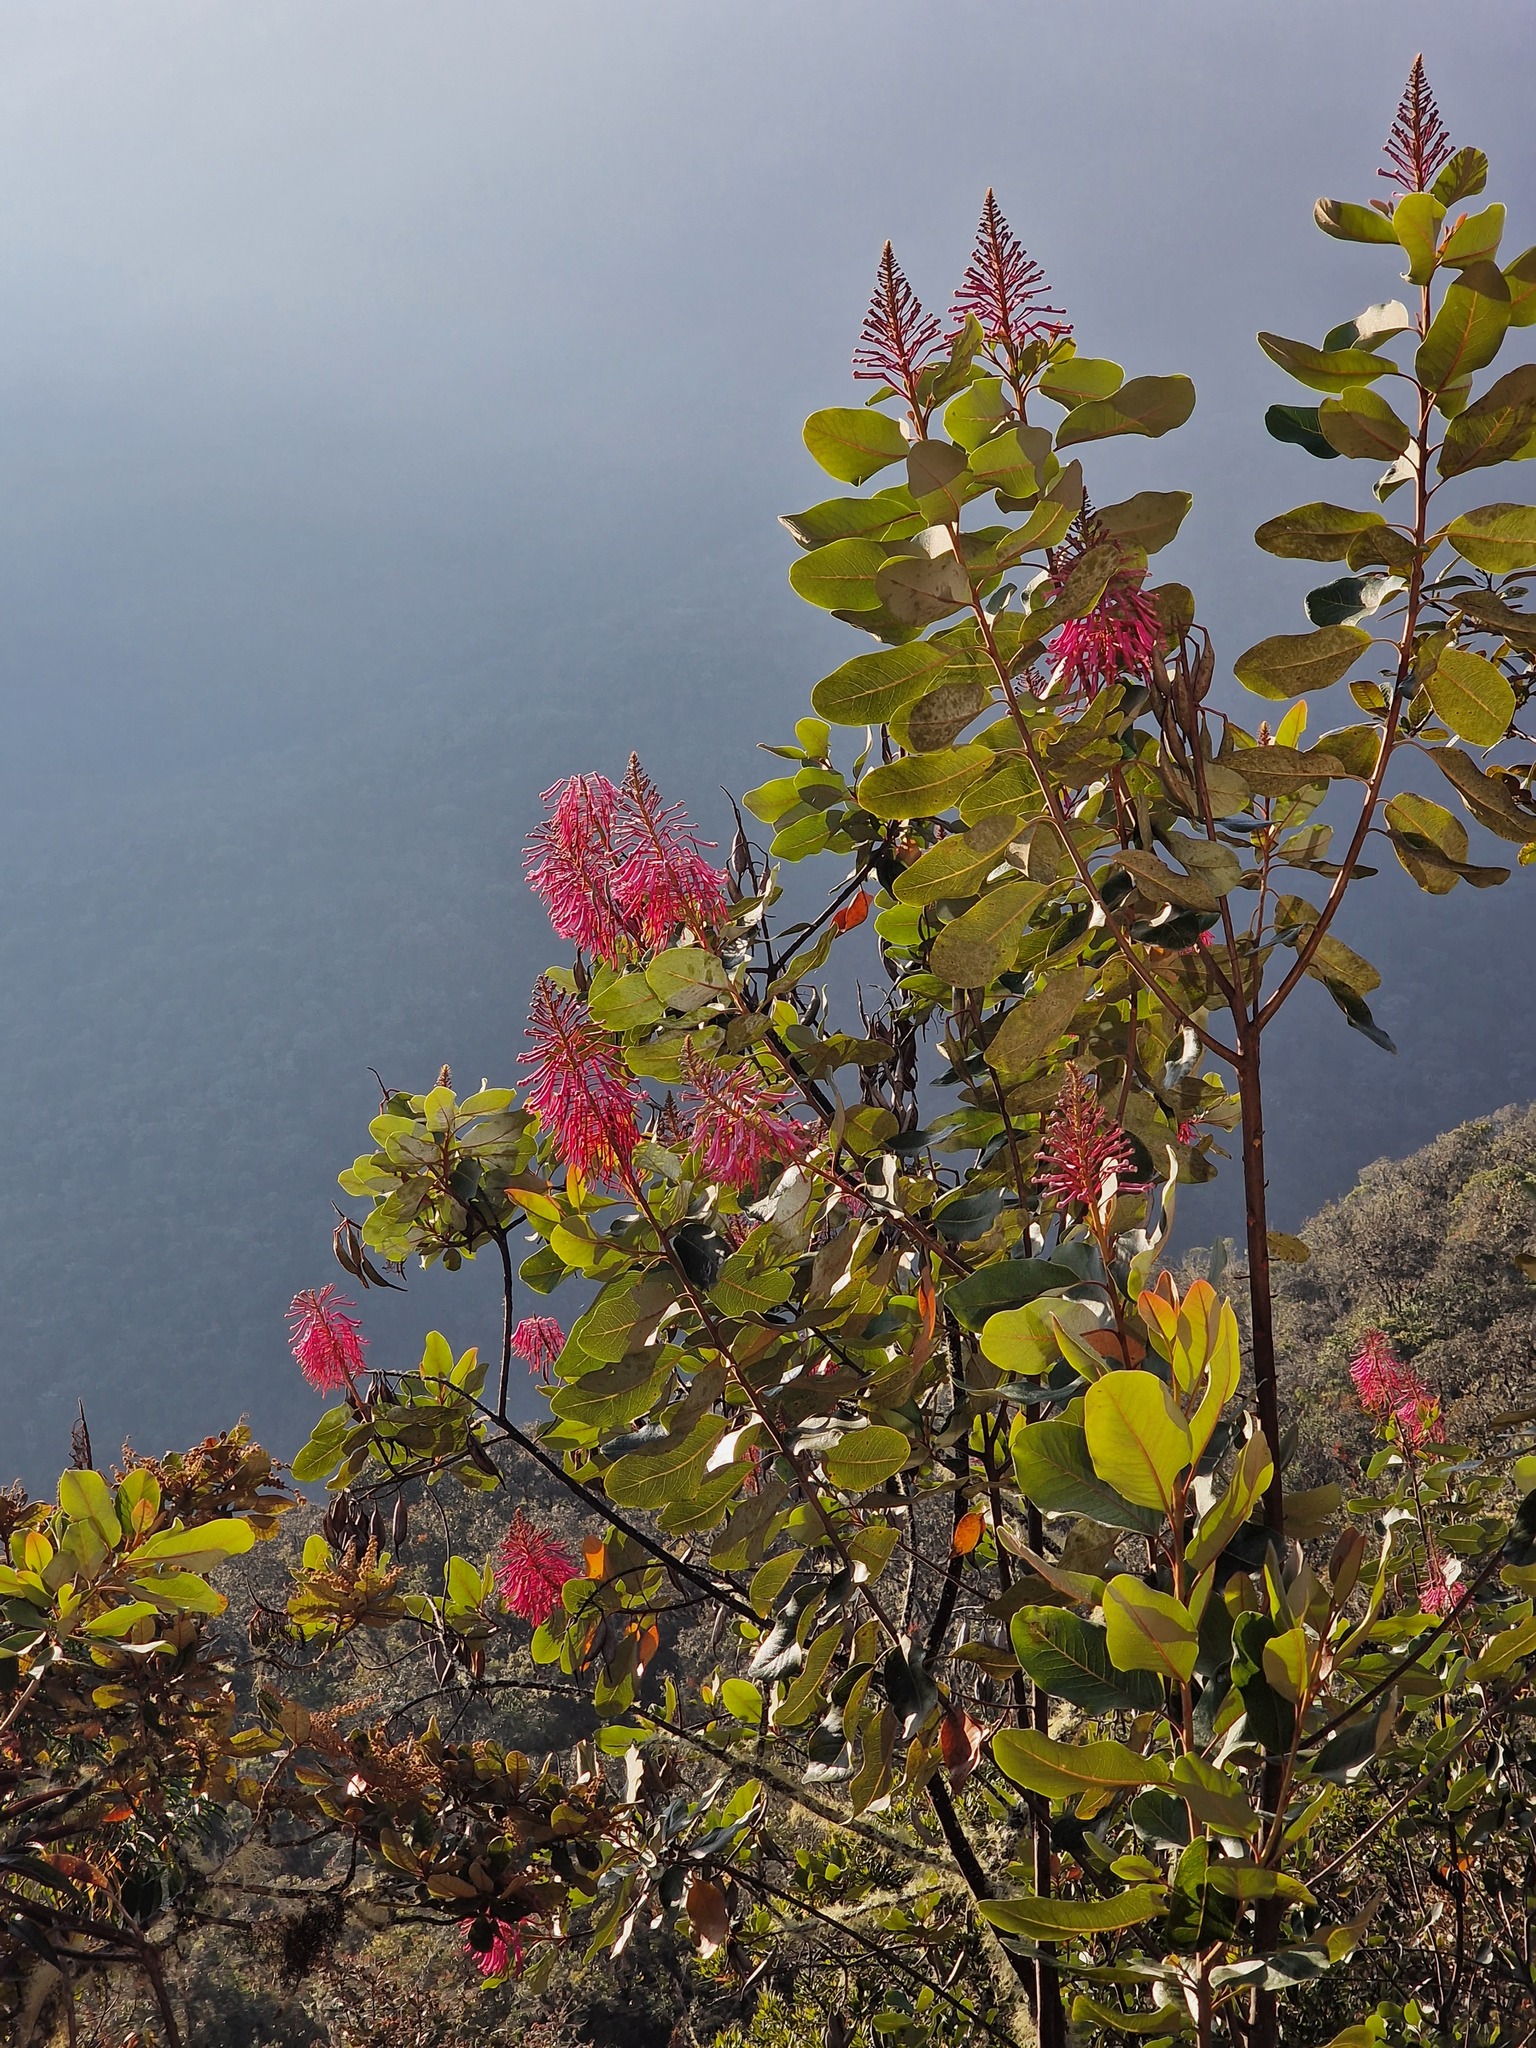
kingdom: Plantae
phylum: Tracheophyta
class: Magnoliopsida
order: Proteales
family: Proteaceae
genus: Oreocallis
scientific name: Oreocallis grandiflora
